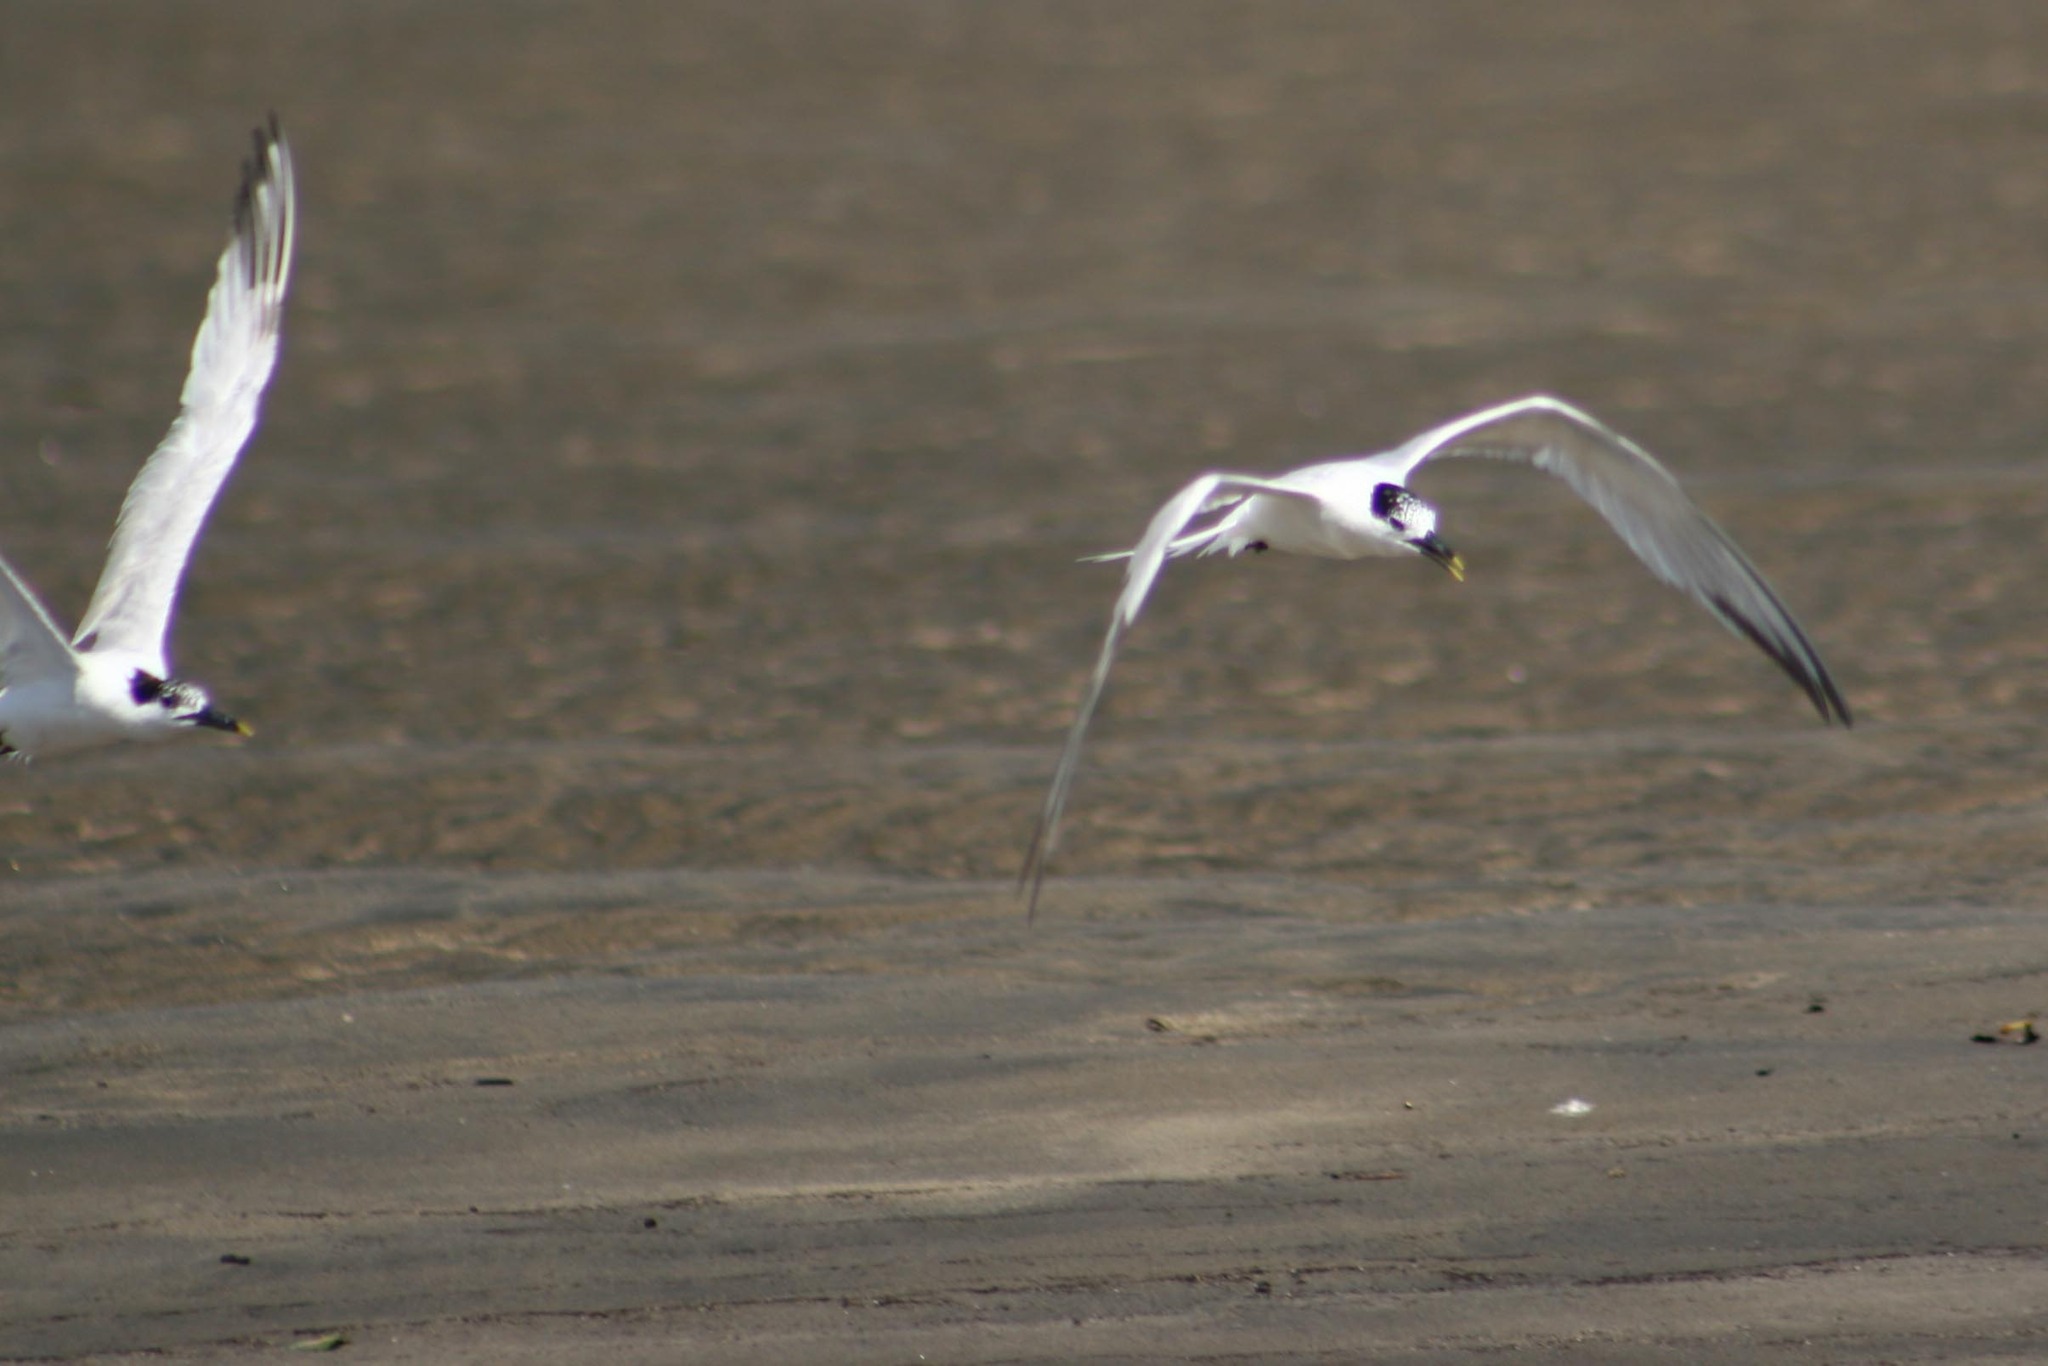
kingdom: Animalia
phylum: Chordata
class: Aves
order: Charadriiformes
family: Laridae
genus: Thalasseus
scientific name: Thalasseus sandvicensis
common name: Sandwich tern
